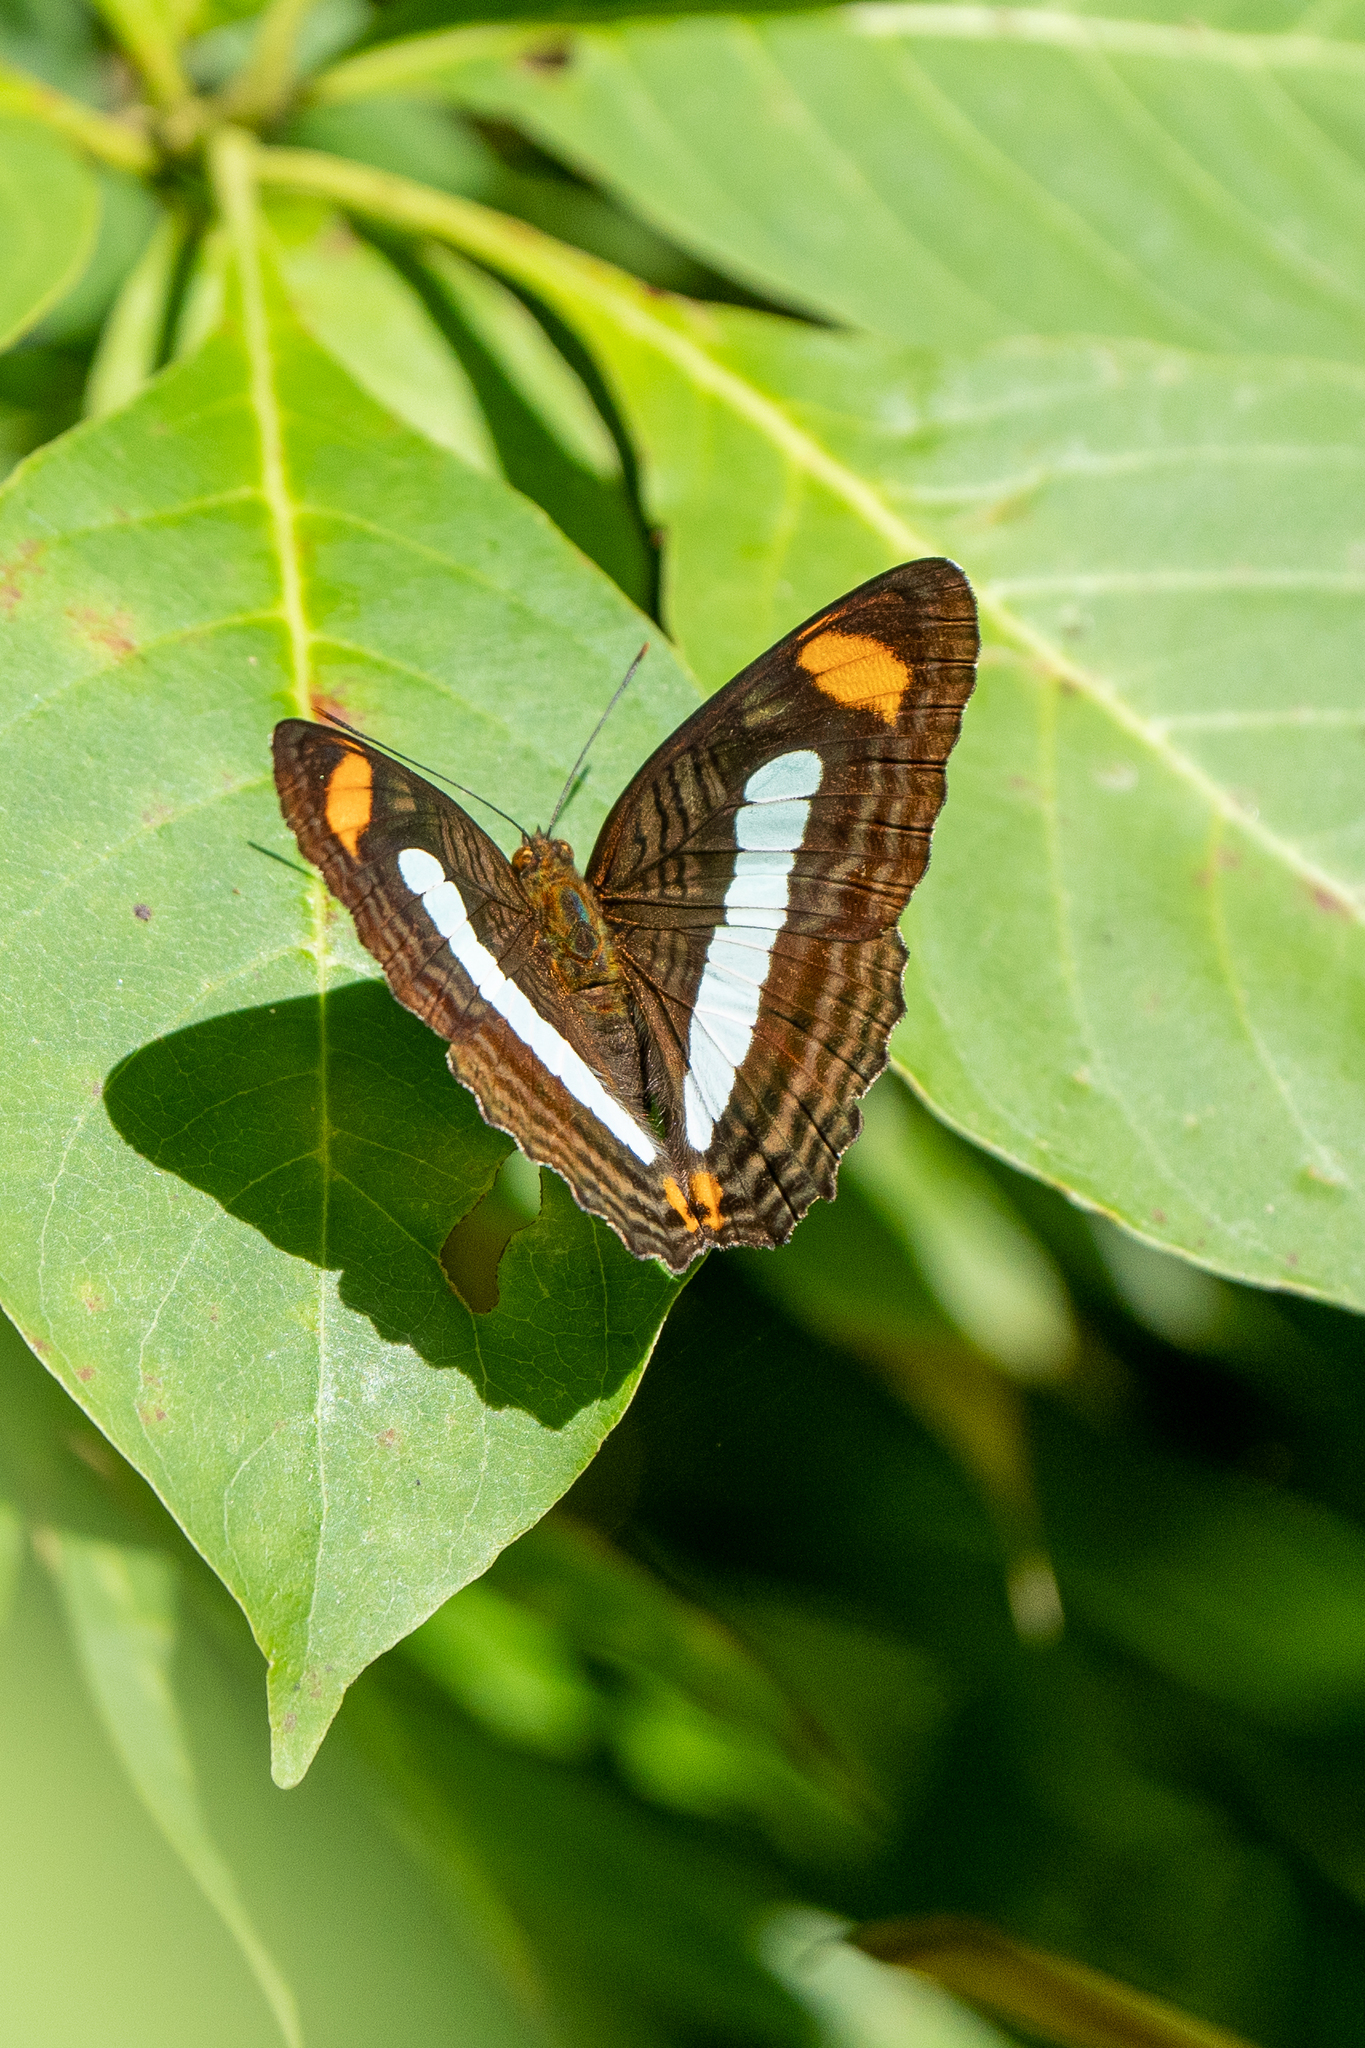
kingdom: Animalia
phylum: Arthropoda
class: Insecta
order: Lepidoptera
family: Nymphalidae
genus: Limenitis
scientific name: Limenitis Adelpha iphiclus
